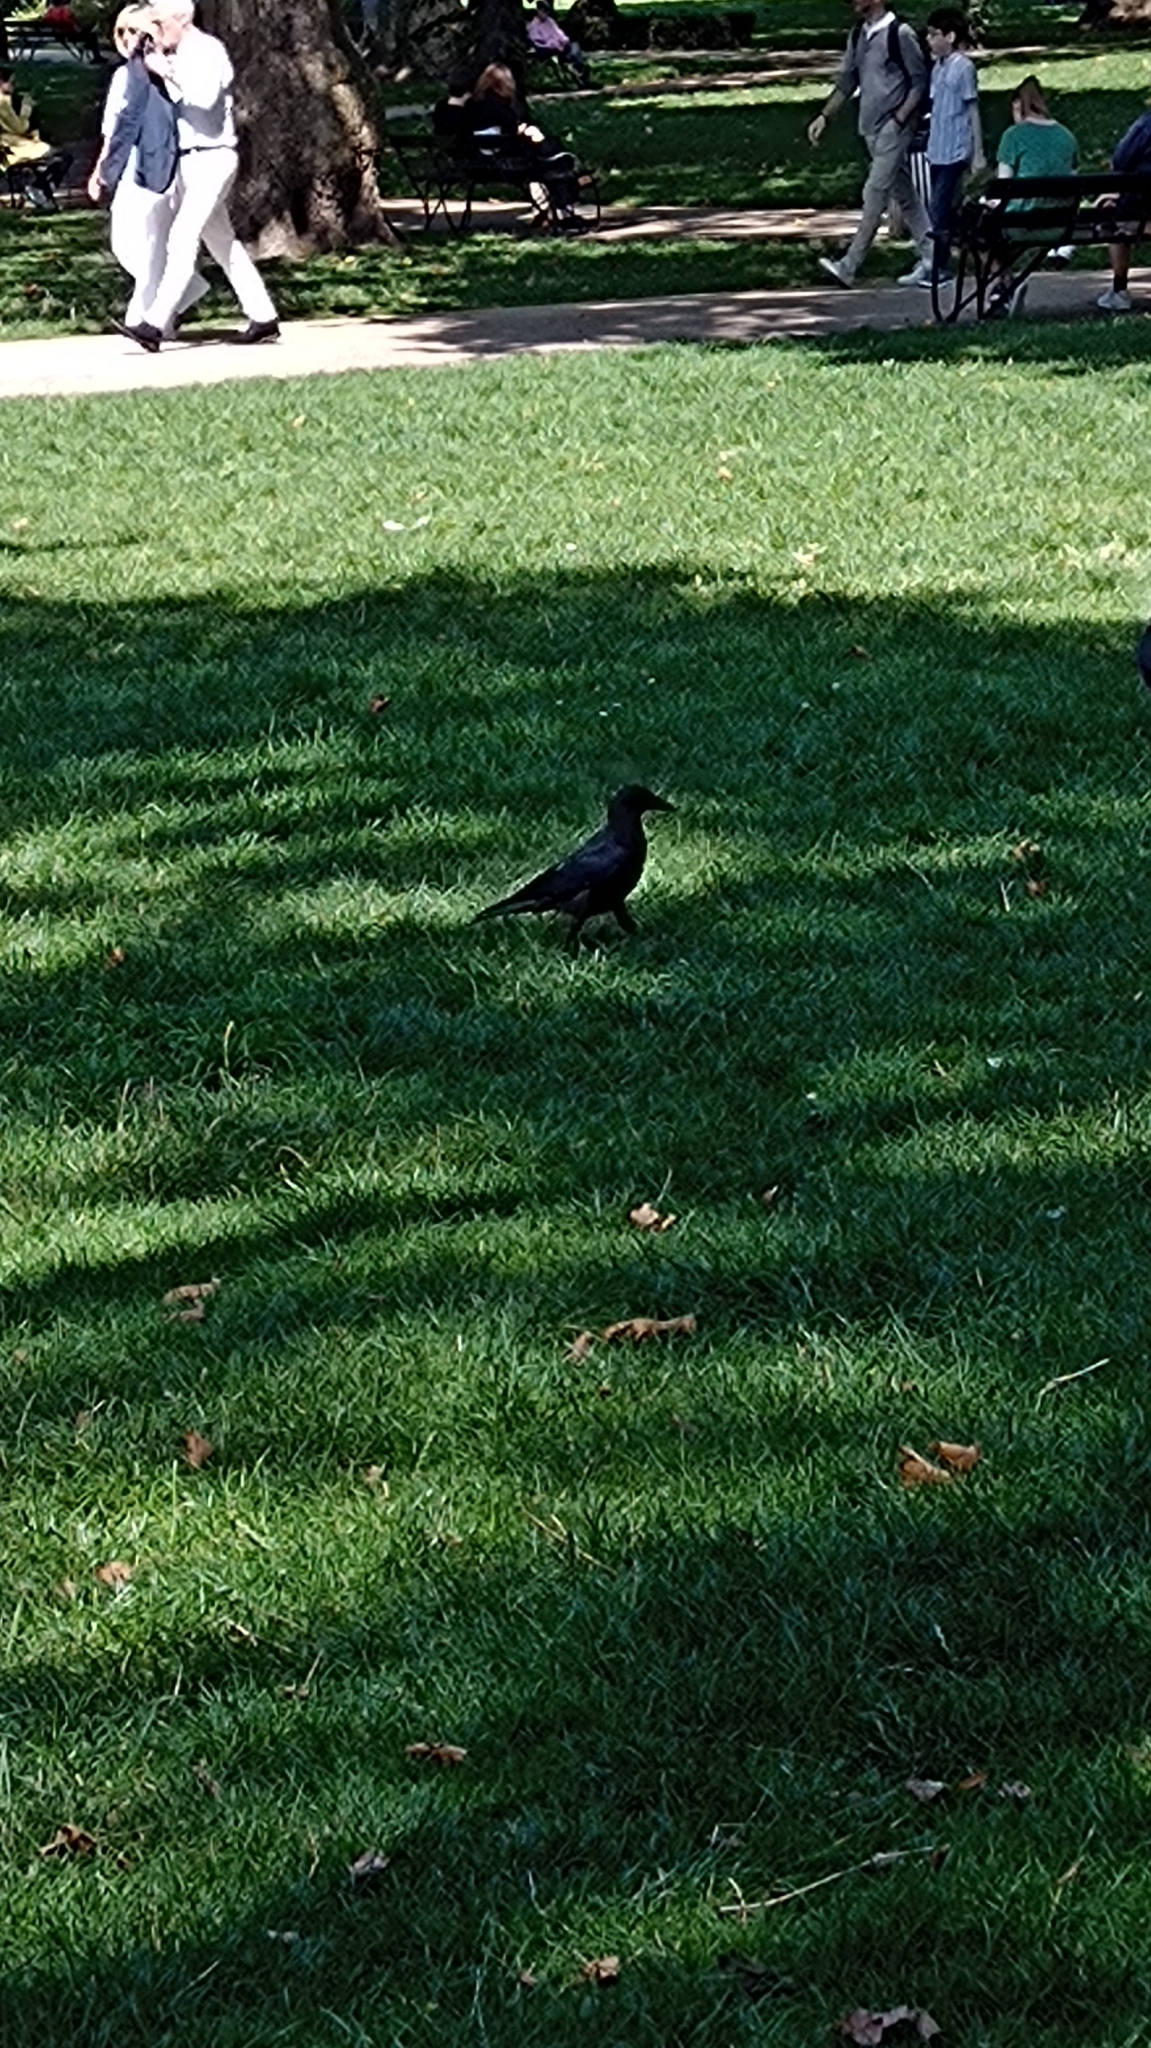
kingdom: Animalia
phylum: Chordata
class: Aves
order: Passeriformes
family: Corvidae
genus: Corvus
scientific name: Corvus corone
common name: Carrion crow
